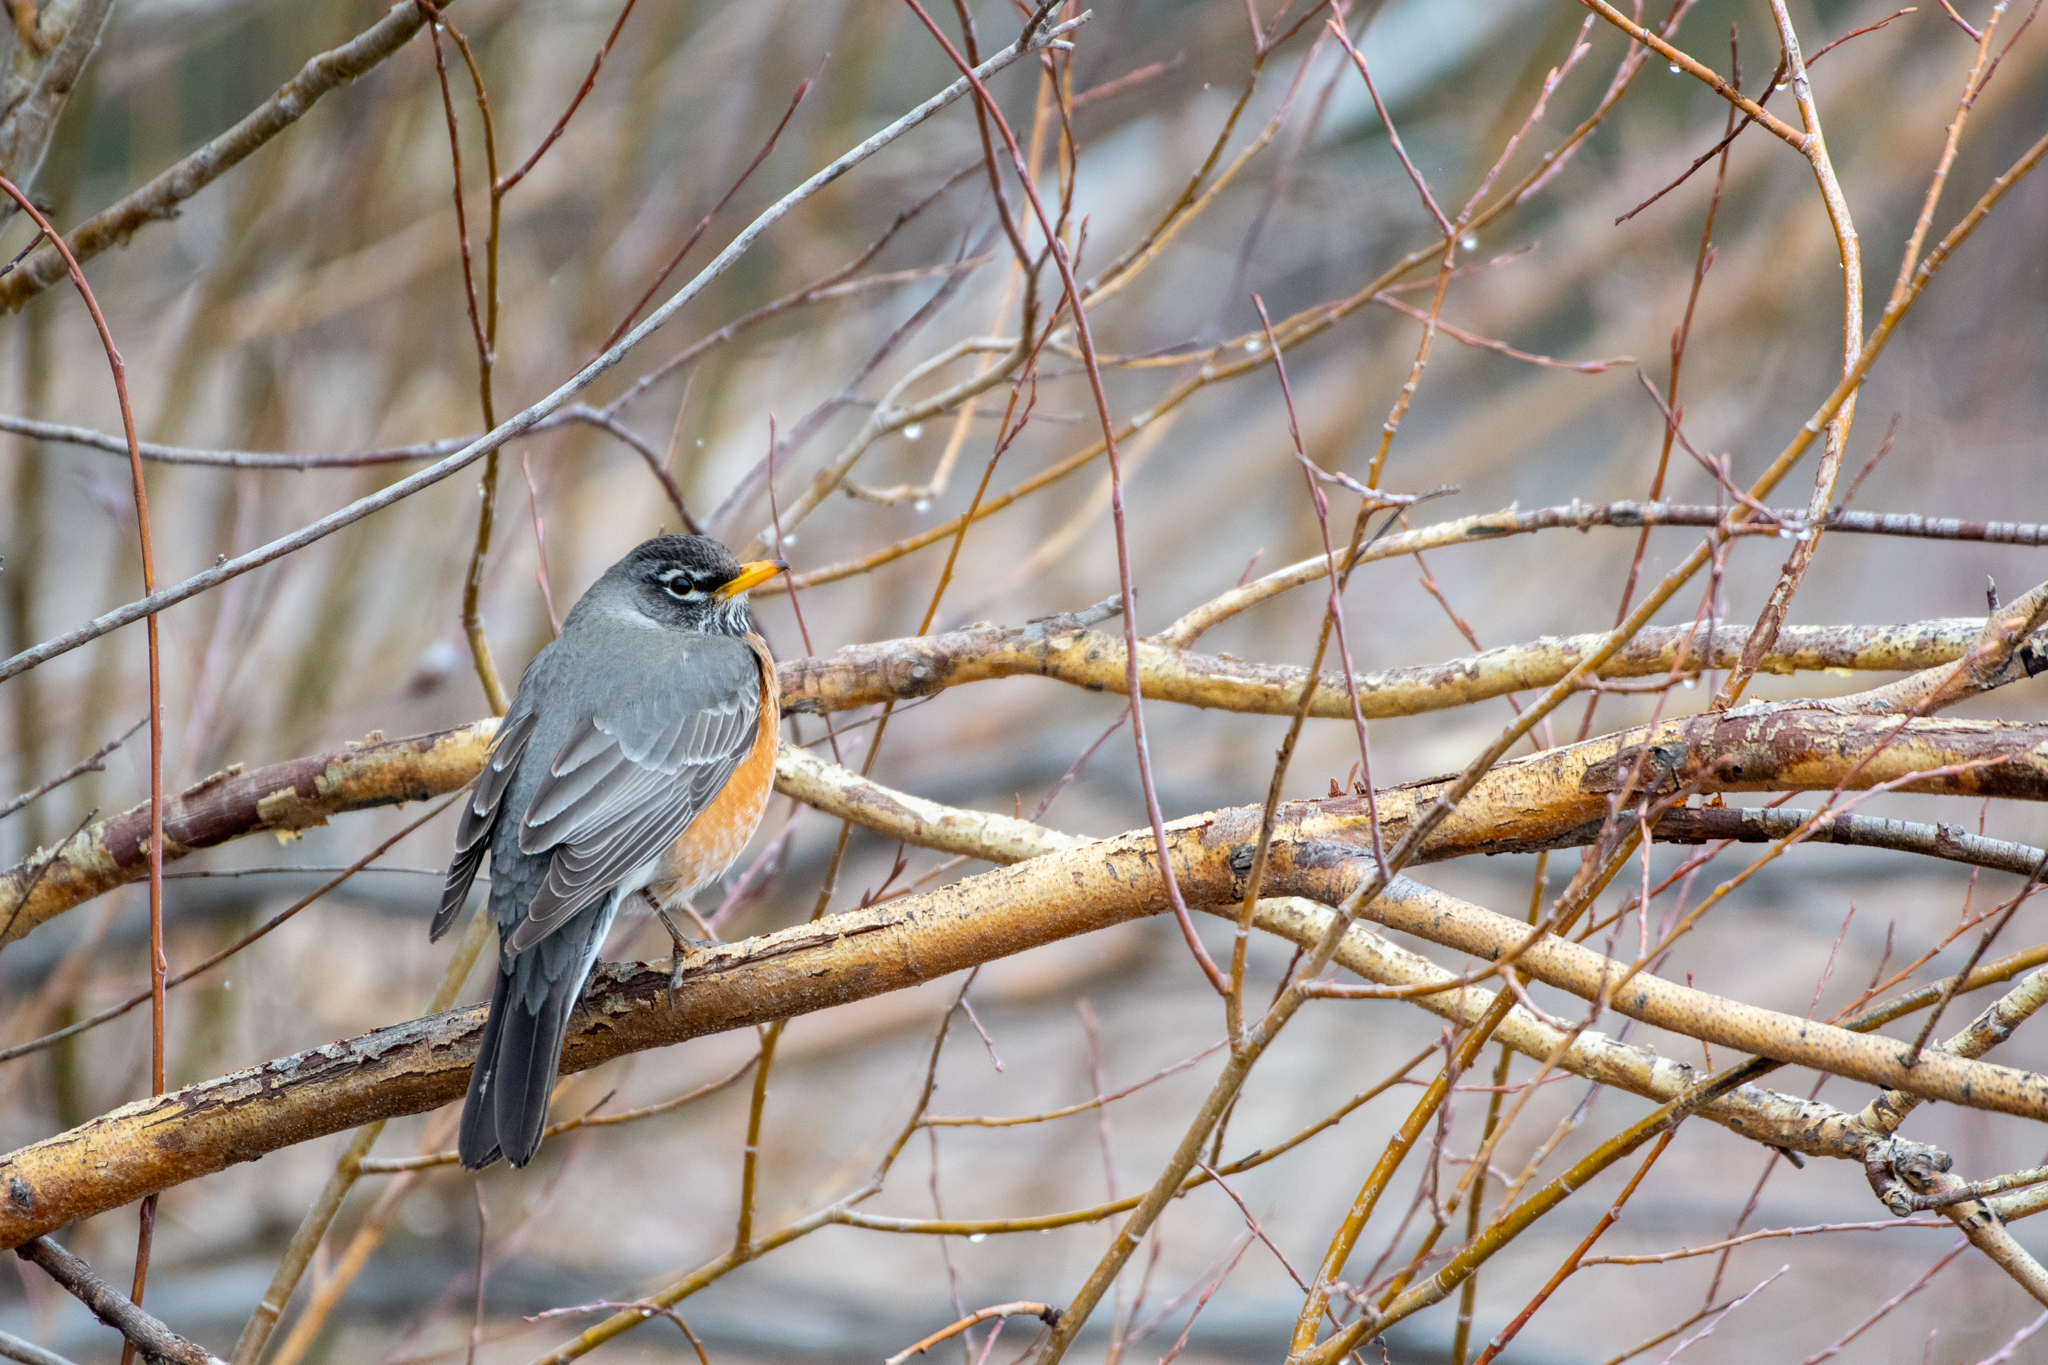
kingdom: Animalia
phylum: Chordata
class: Aves
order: Passeriformes
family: Turdidae
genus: Turdus
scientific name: Turdus migratorius
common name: American robin
